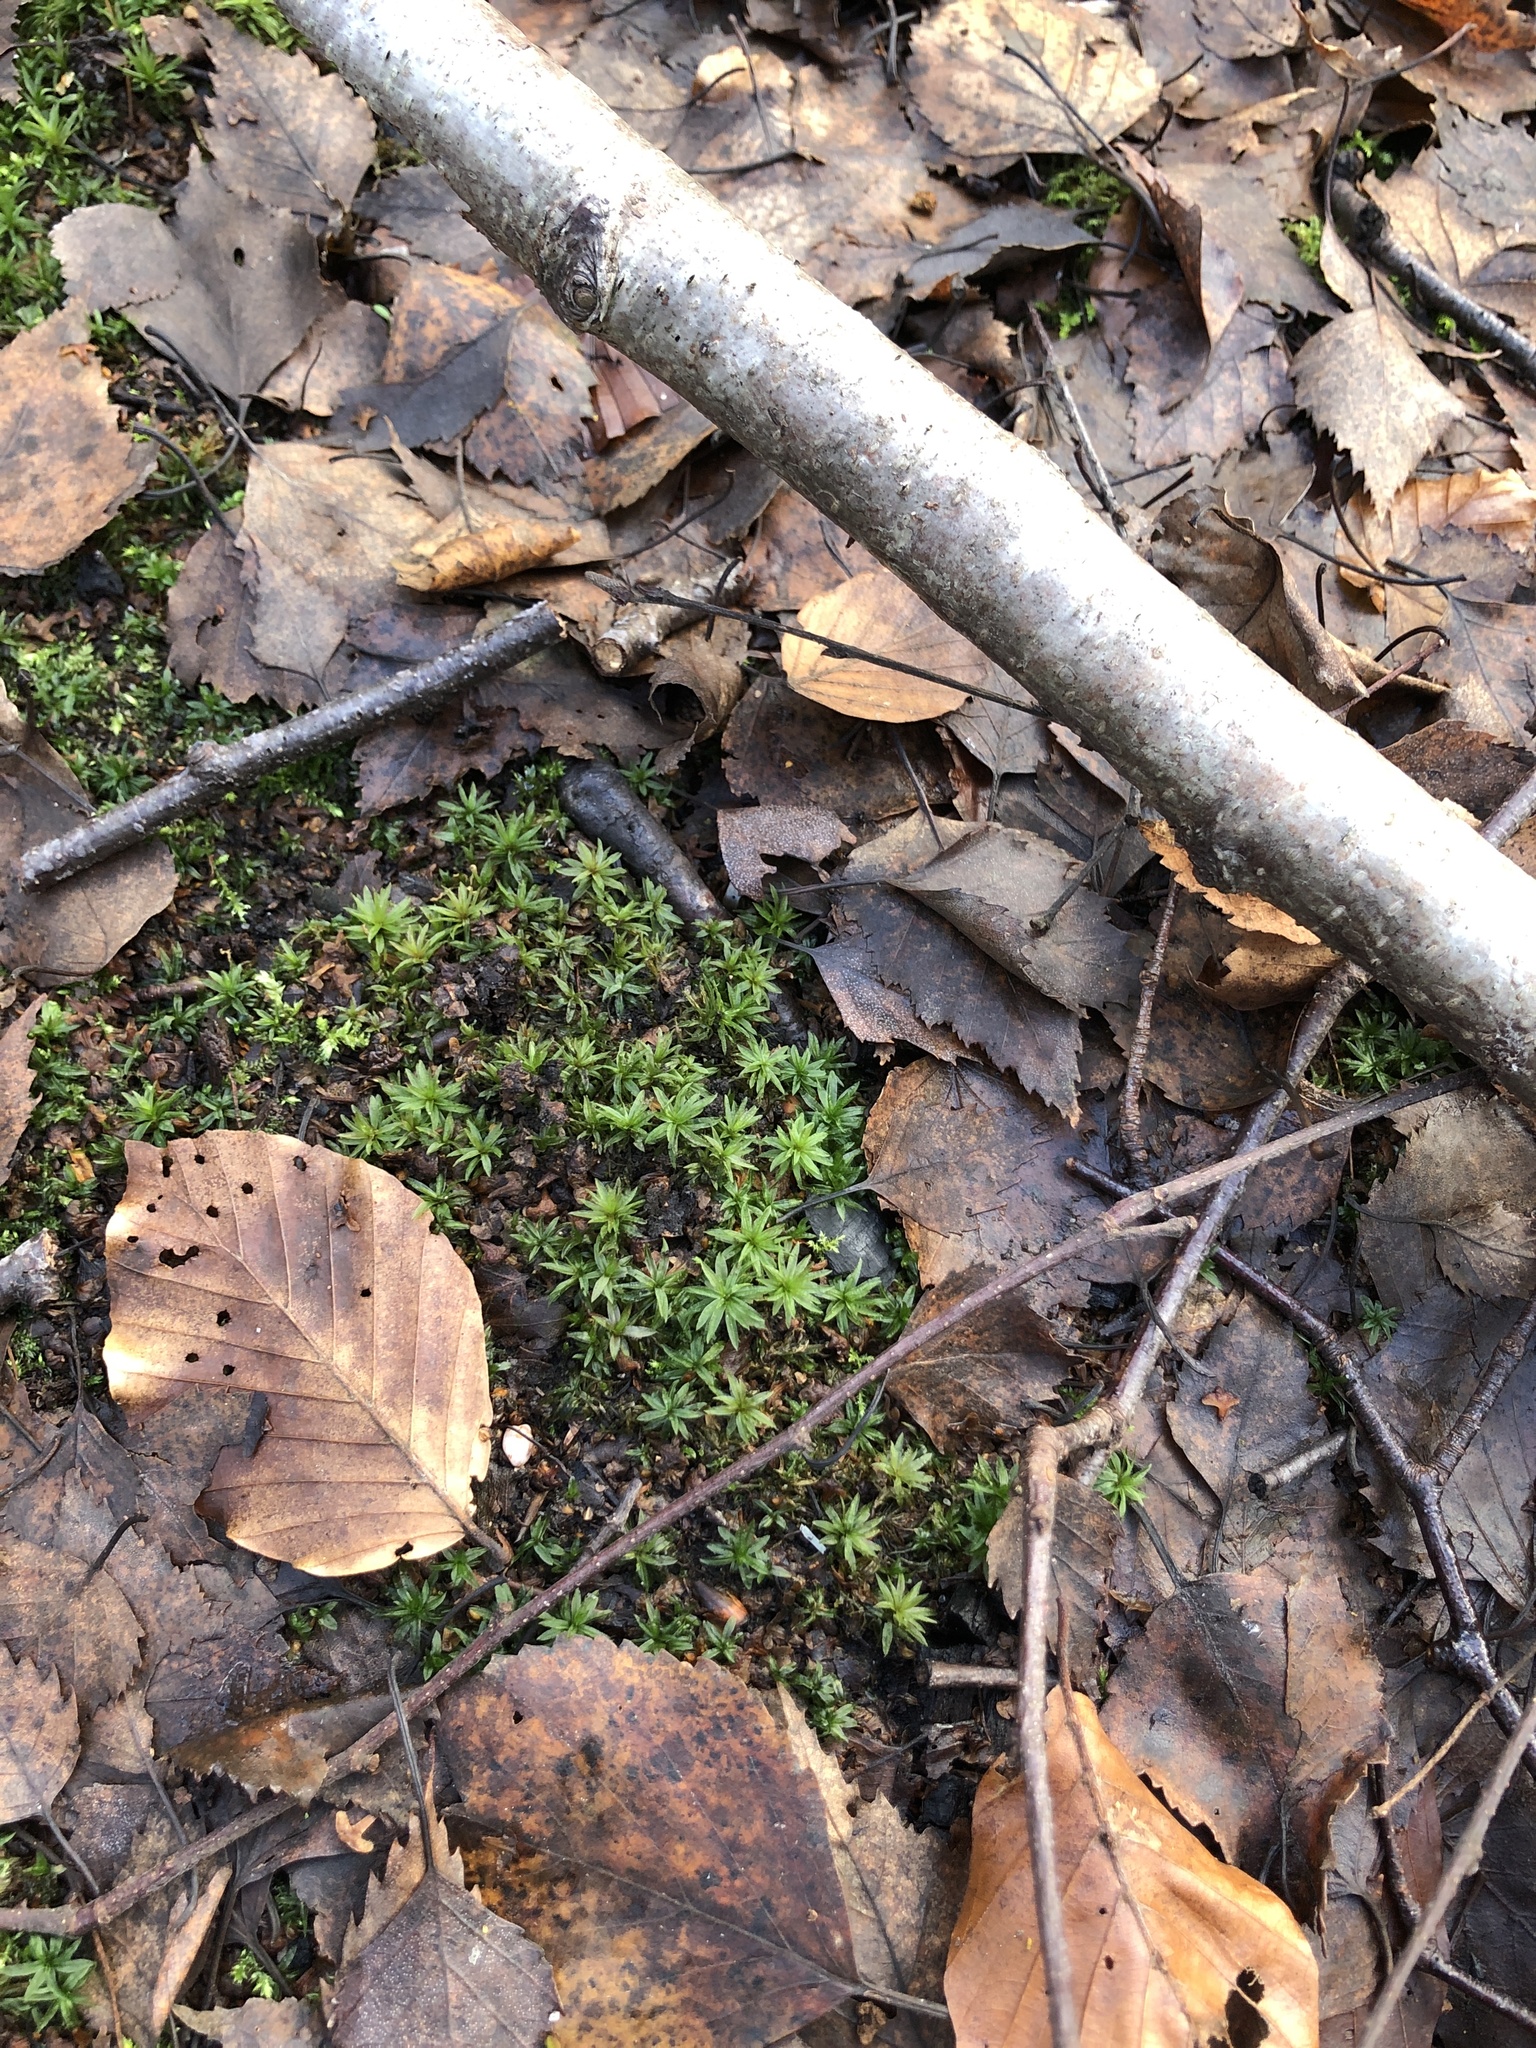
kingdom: Plantae
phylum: Bryophyta
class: Polytrichopsida
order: Polytrichales
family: Polytrichaceae
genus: Atrichum
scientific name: Atrichum undulatum
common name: Common smoothcap
